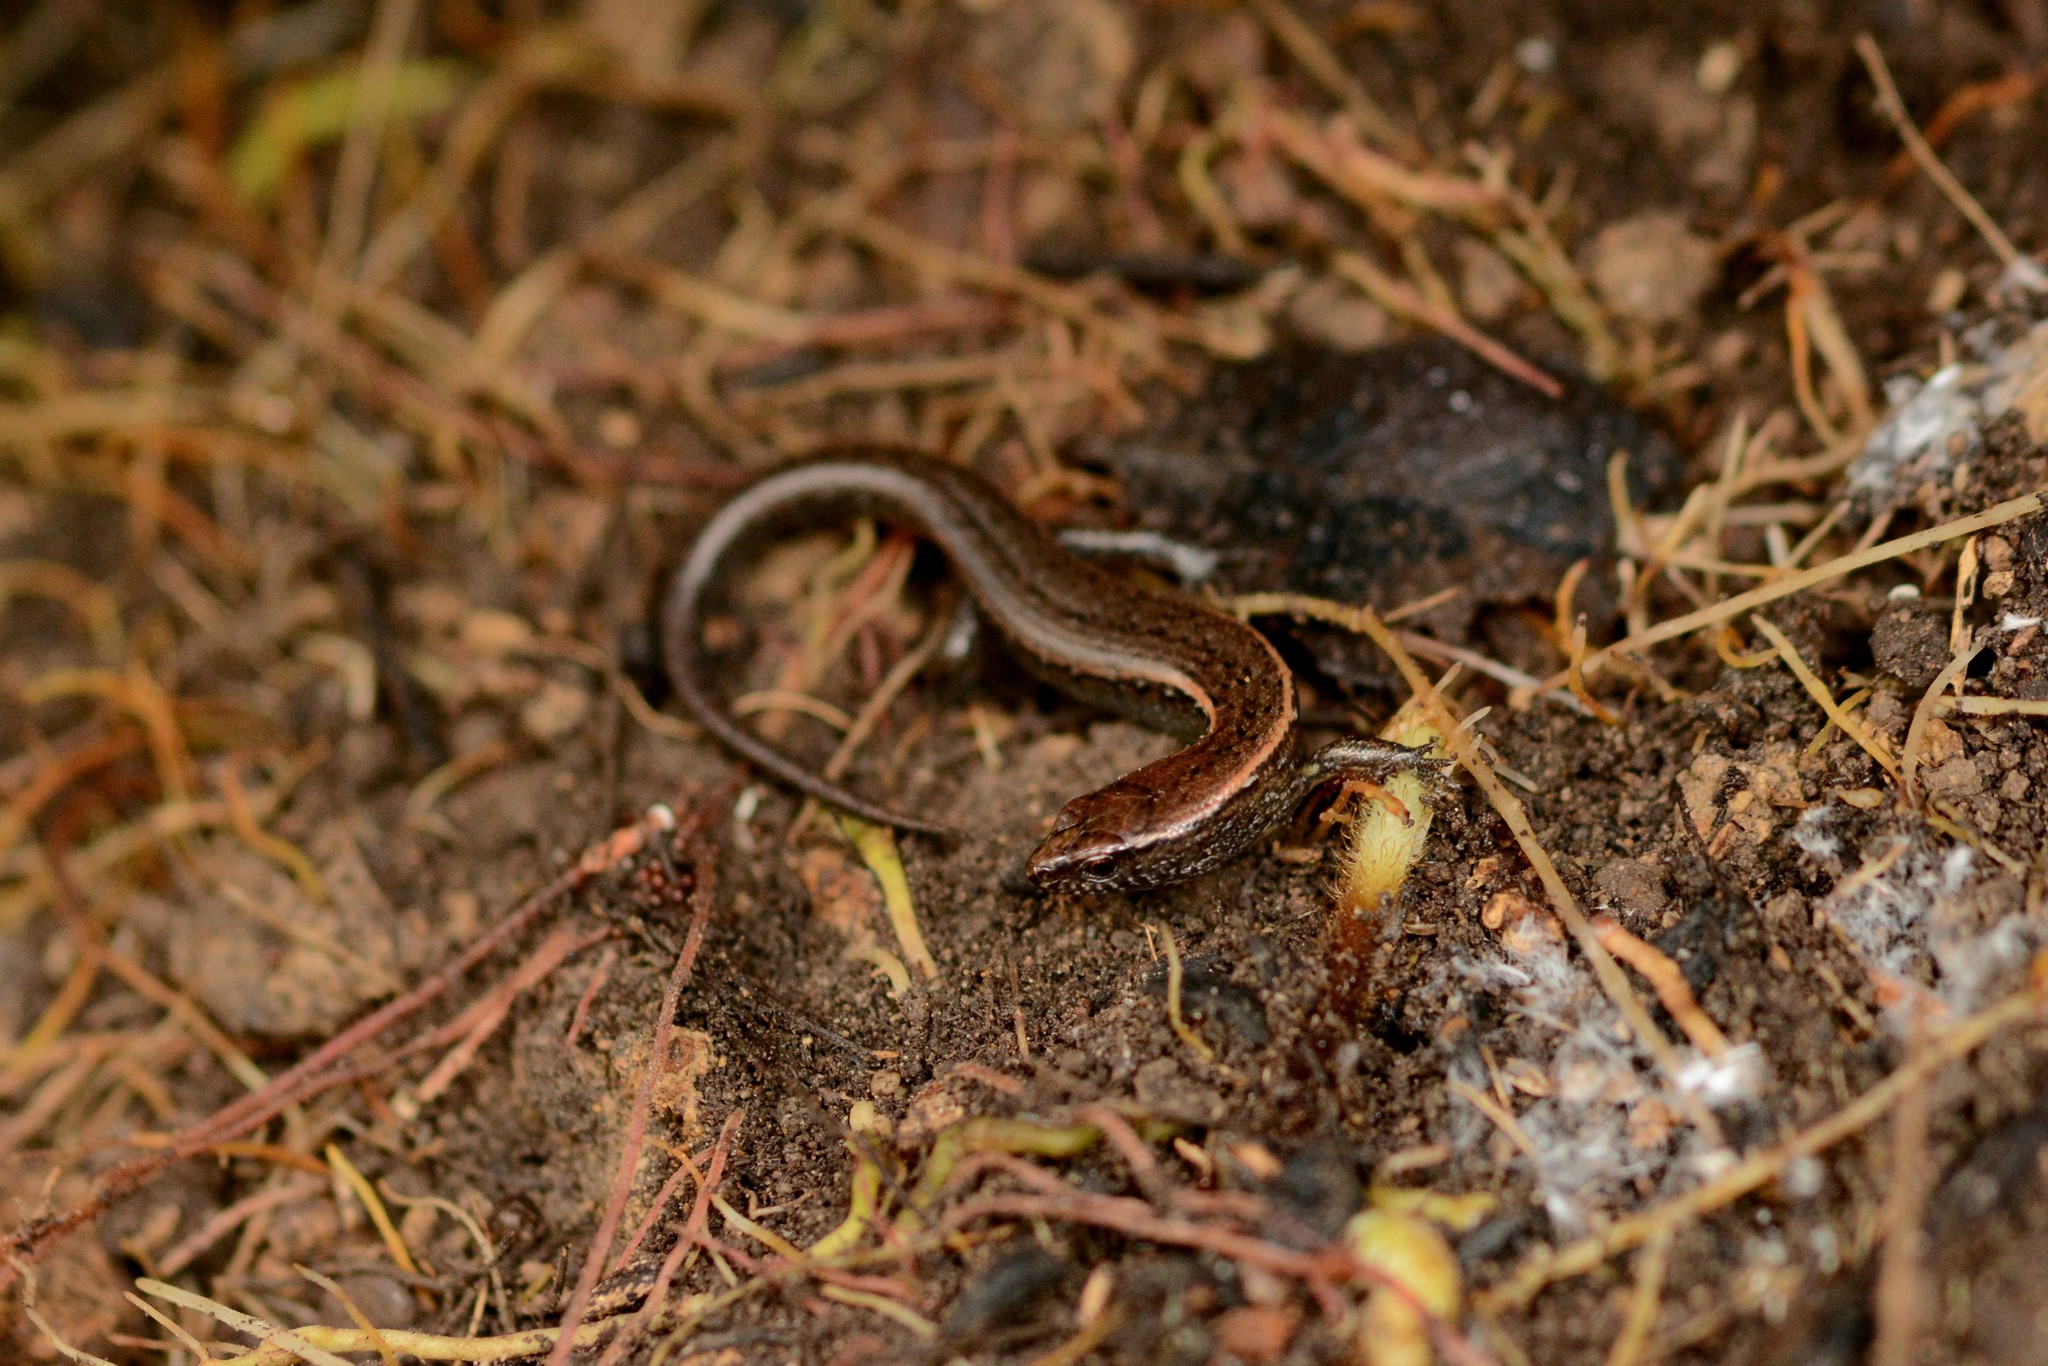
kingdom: Animalia
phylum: Chordata
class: Squamata
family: Scincidae
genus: Oligosoma
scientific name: Oligosoma aeneum
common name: Copper skink
